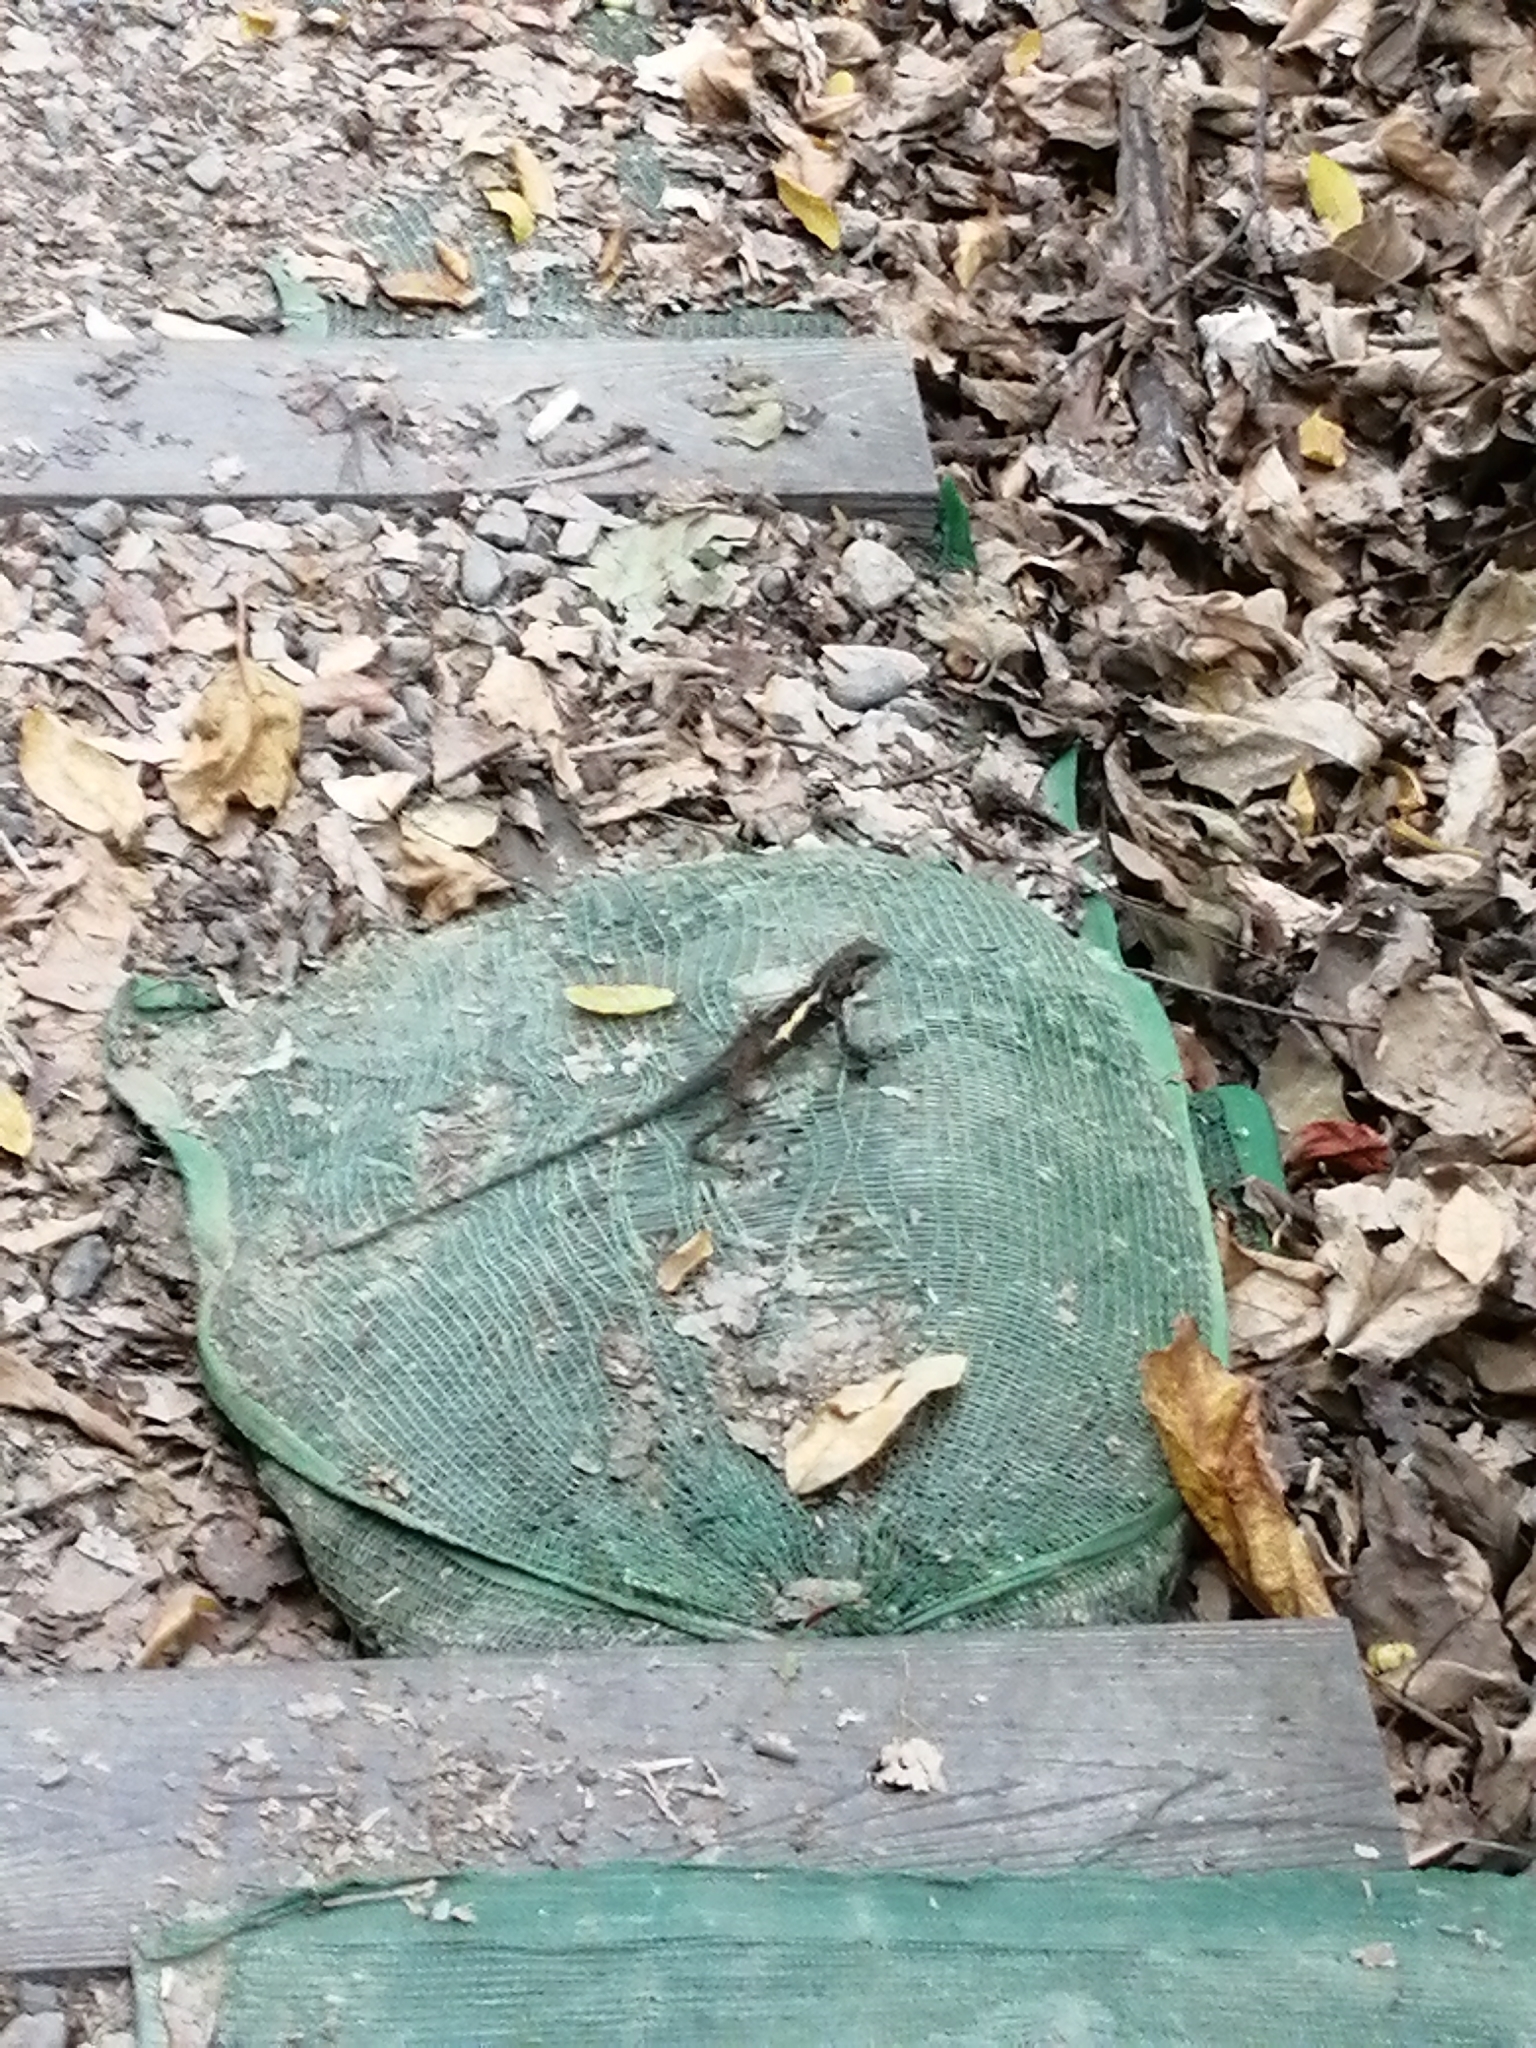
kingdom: Animalia
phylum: Chordata
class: Squamata
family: Agamidae
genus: Diploderma
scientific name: Diploderma swinhonis
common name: Taiwan japalure
